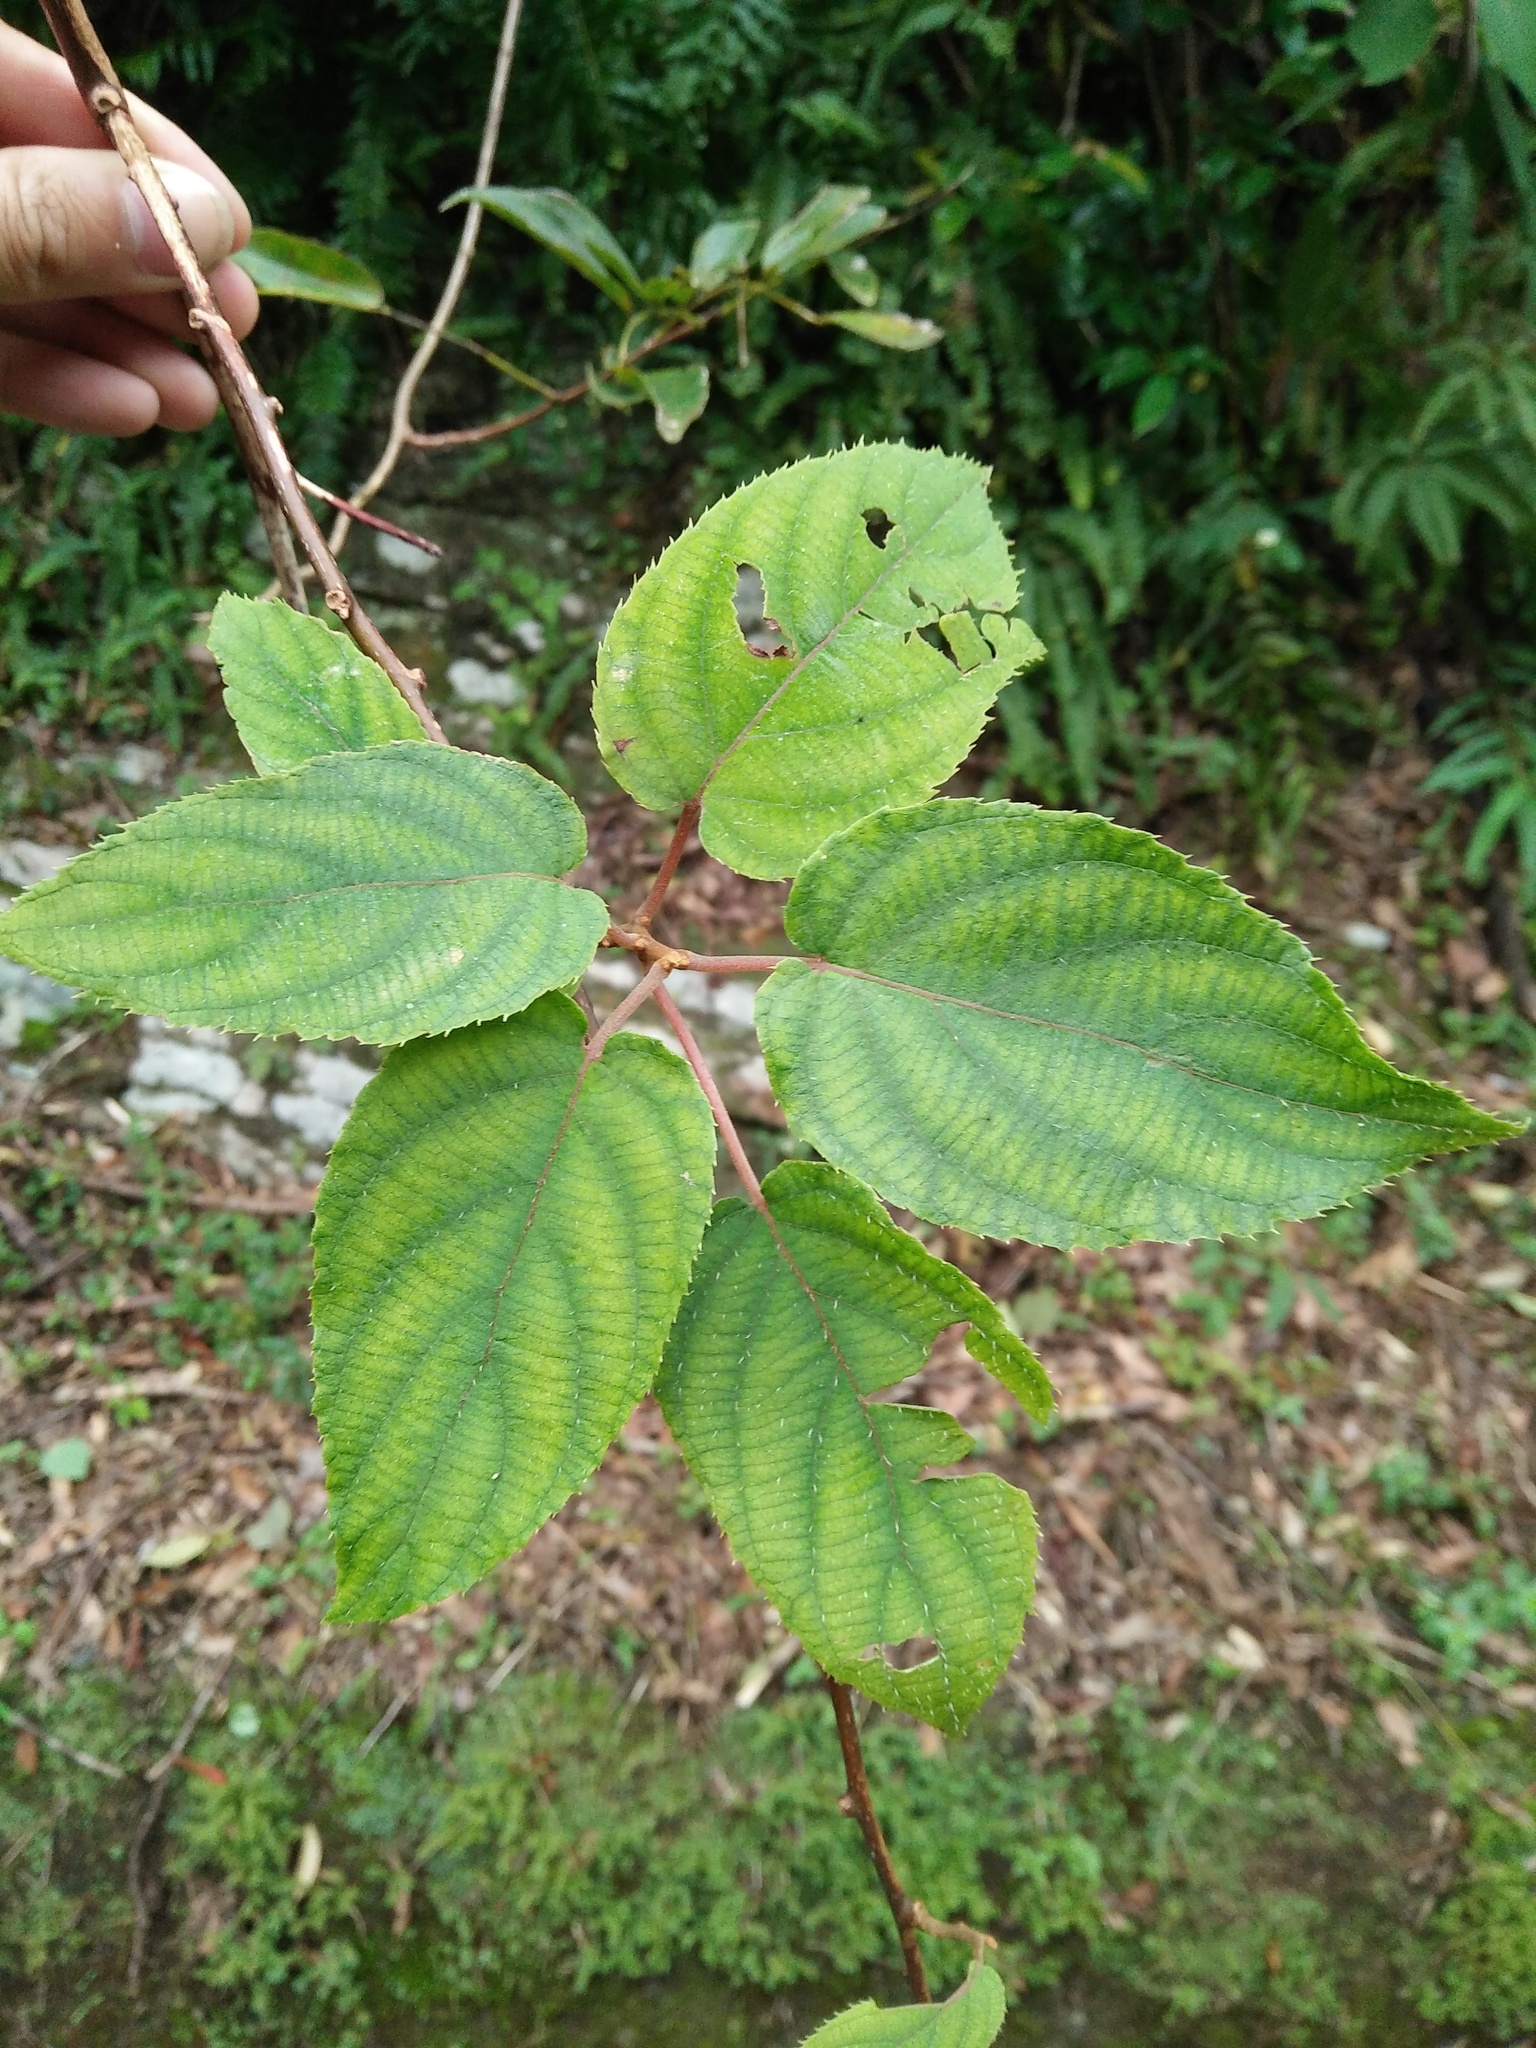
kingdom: Plantae
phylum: Tracheophyta
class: Magnoliopsida
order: Ericales
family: Actinidiaceae
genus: Actinidia
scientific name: Actinidia latifolia
